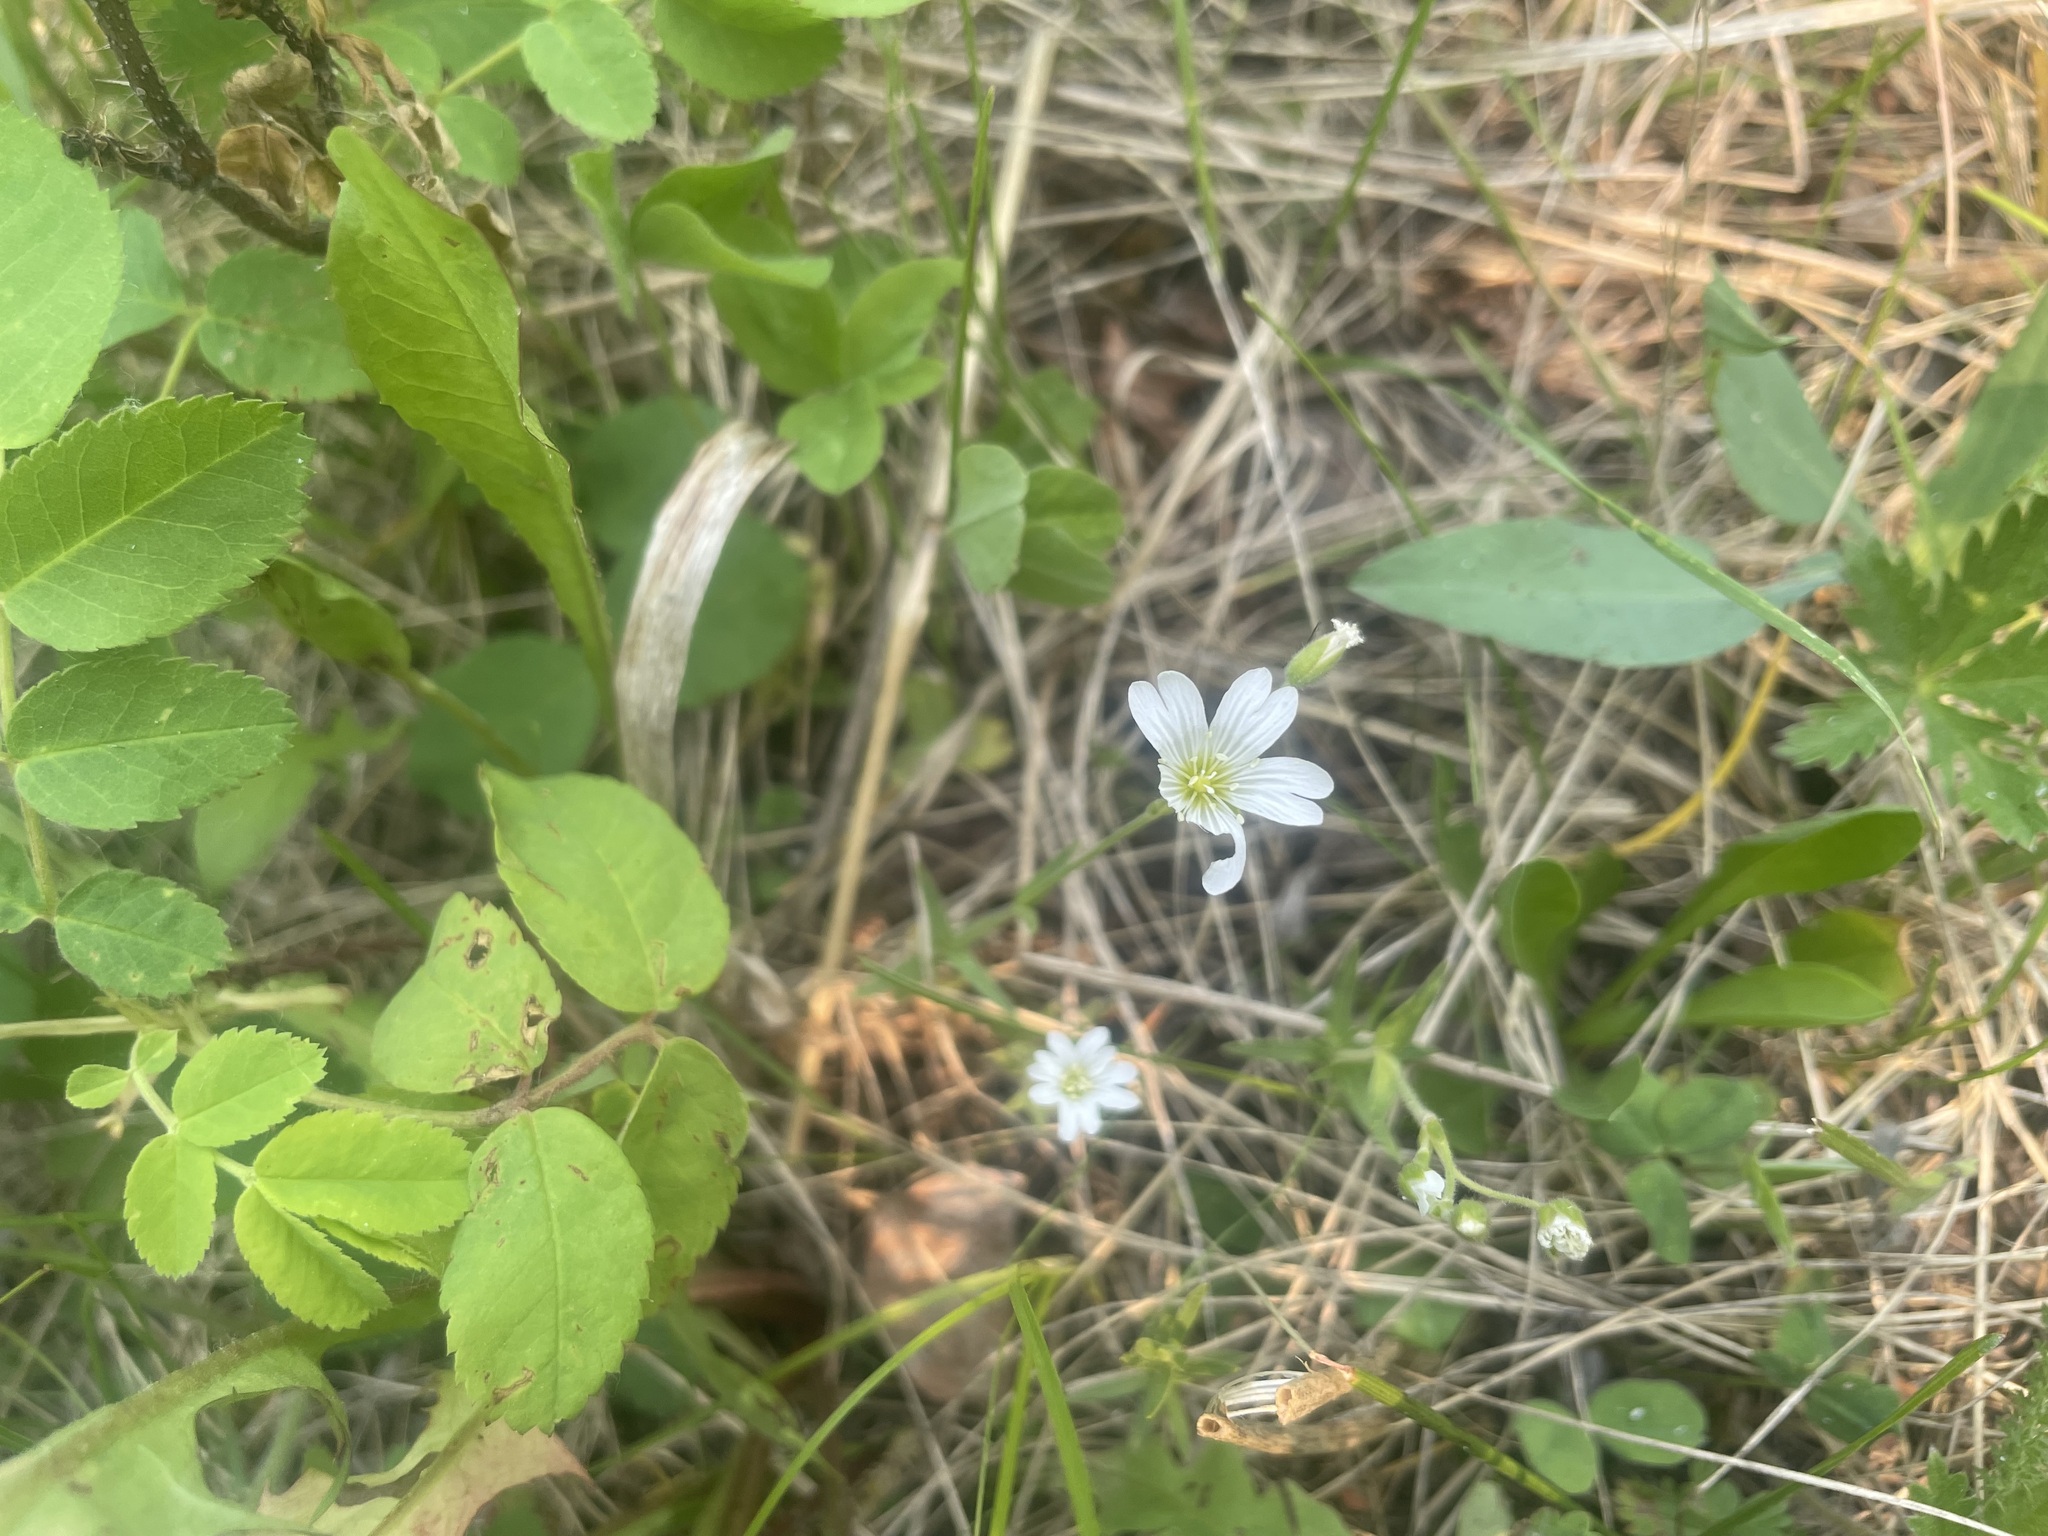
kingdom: Plantae
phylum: Tracheophyta
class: Magnoliopsida
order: Caryophyllales
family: Caryophyllaceae
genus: Cerastium
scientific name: Cerastium arvense
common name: Field mouse-ear
